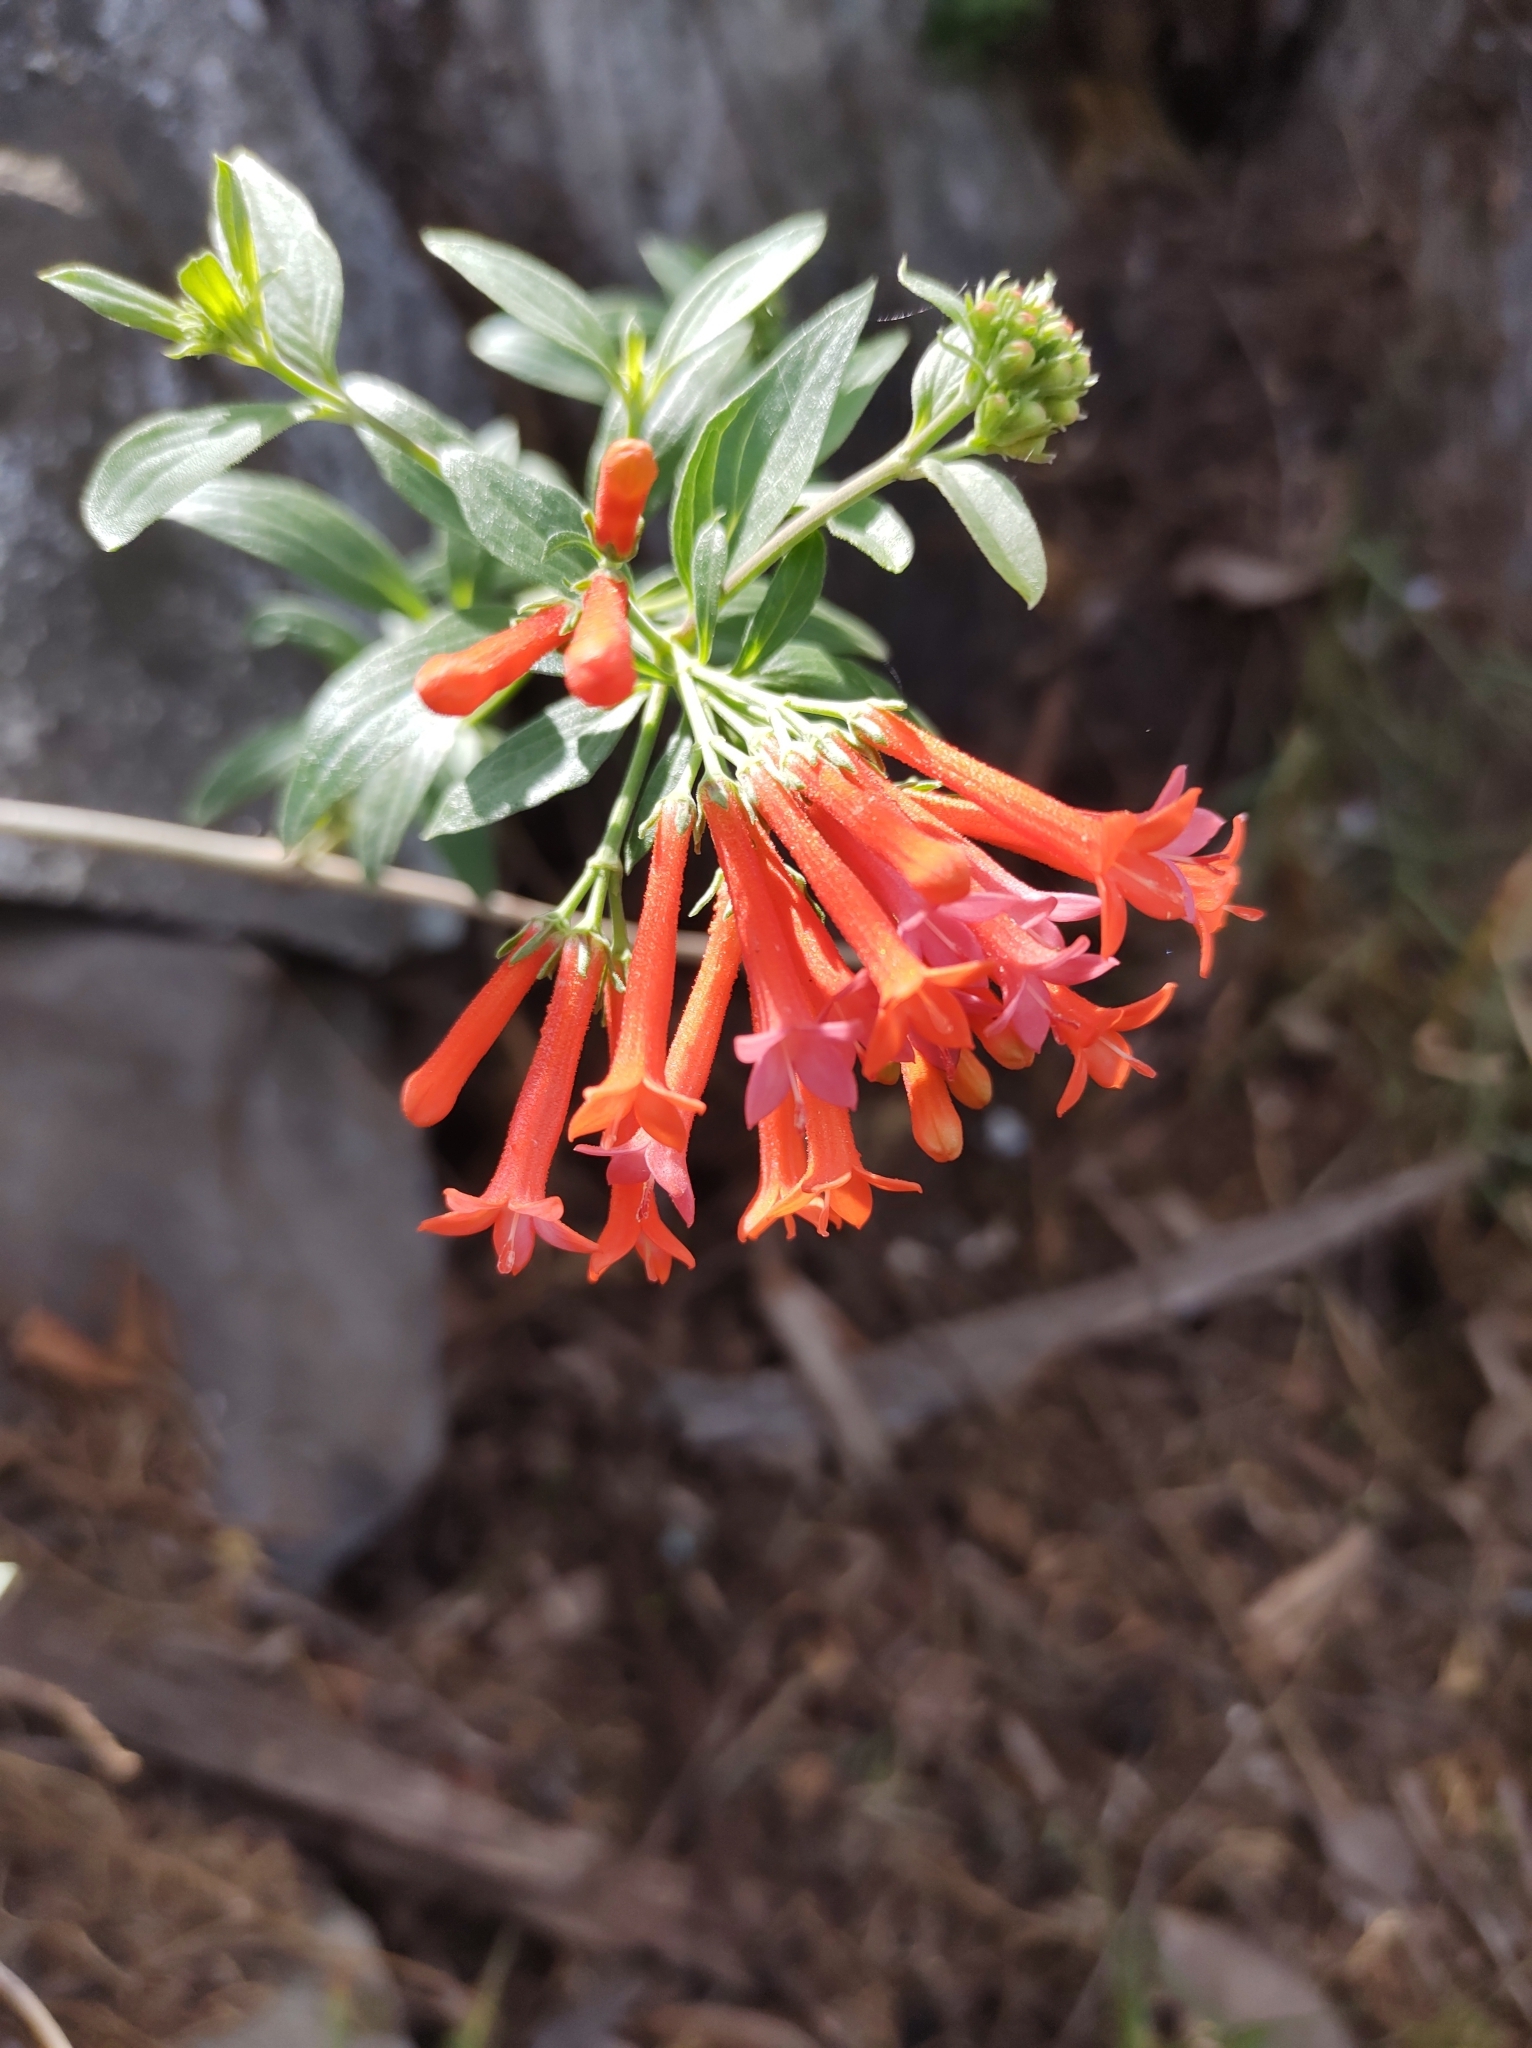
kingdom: Plantae
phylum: Tracheophyta
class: Magnoliopsida
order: Gentianales
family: Rubiaceae
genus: Bouvardia
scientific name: Bouvardia ternifolia
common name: Scarlet bouvardia
